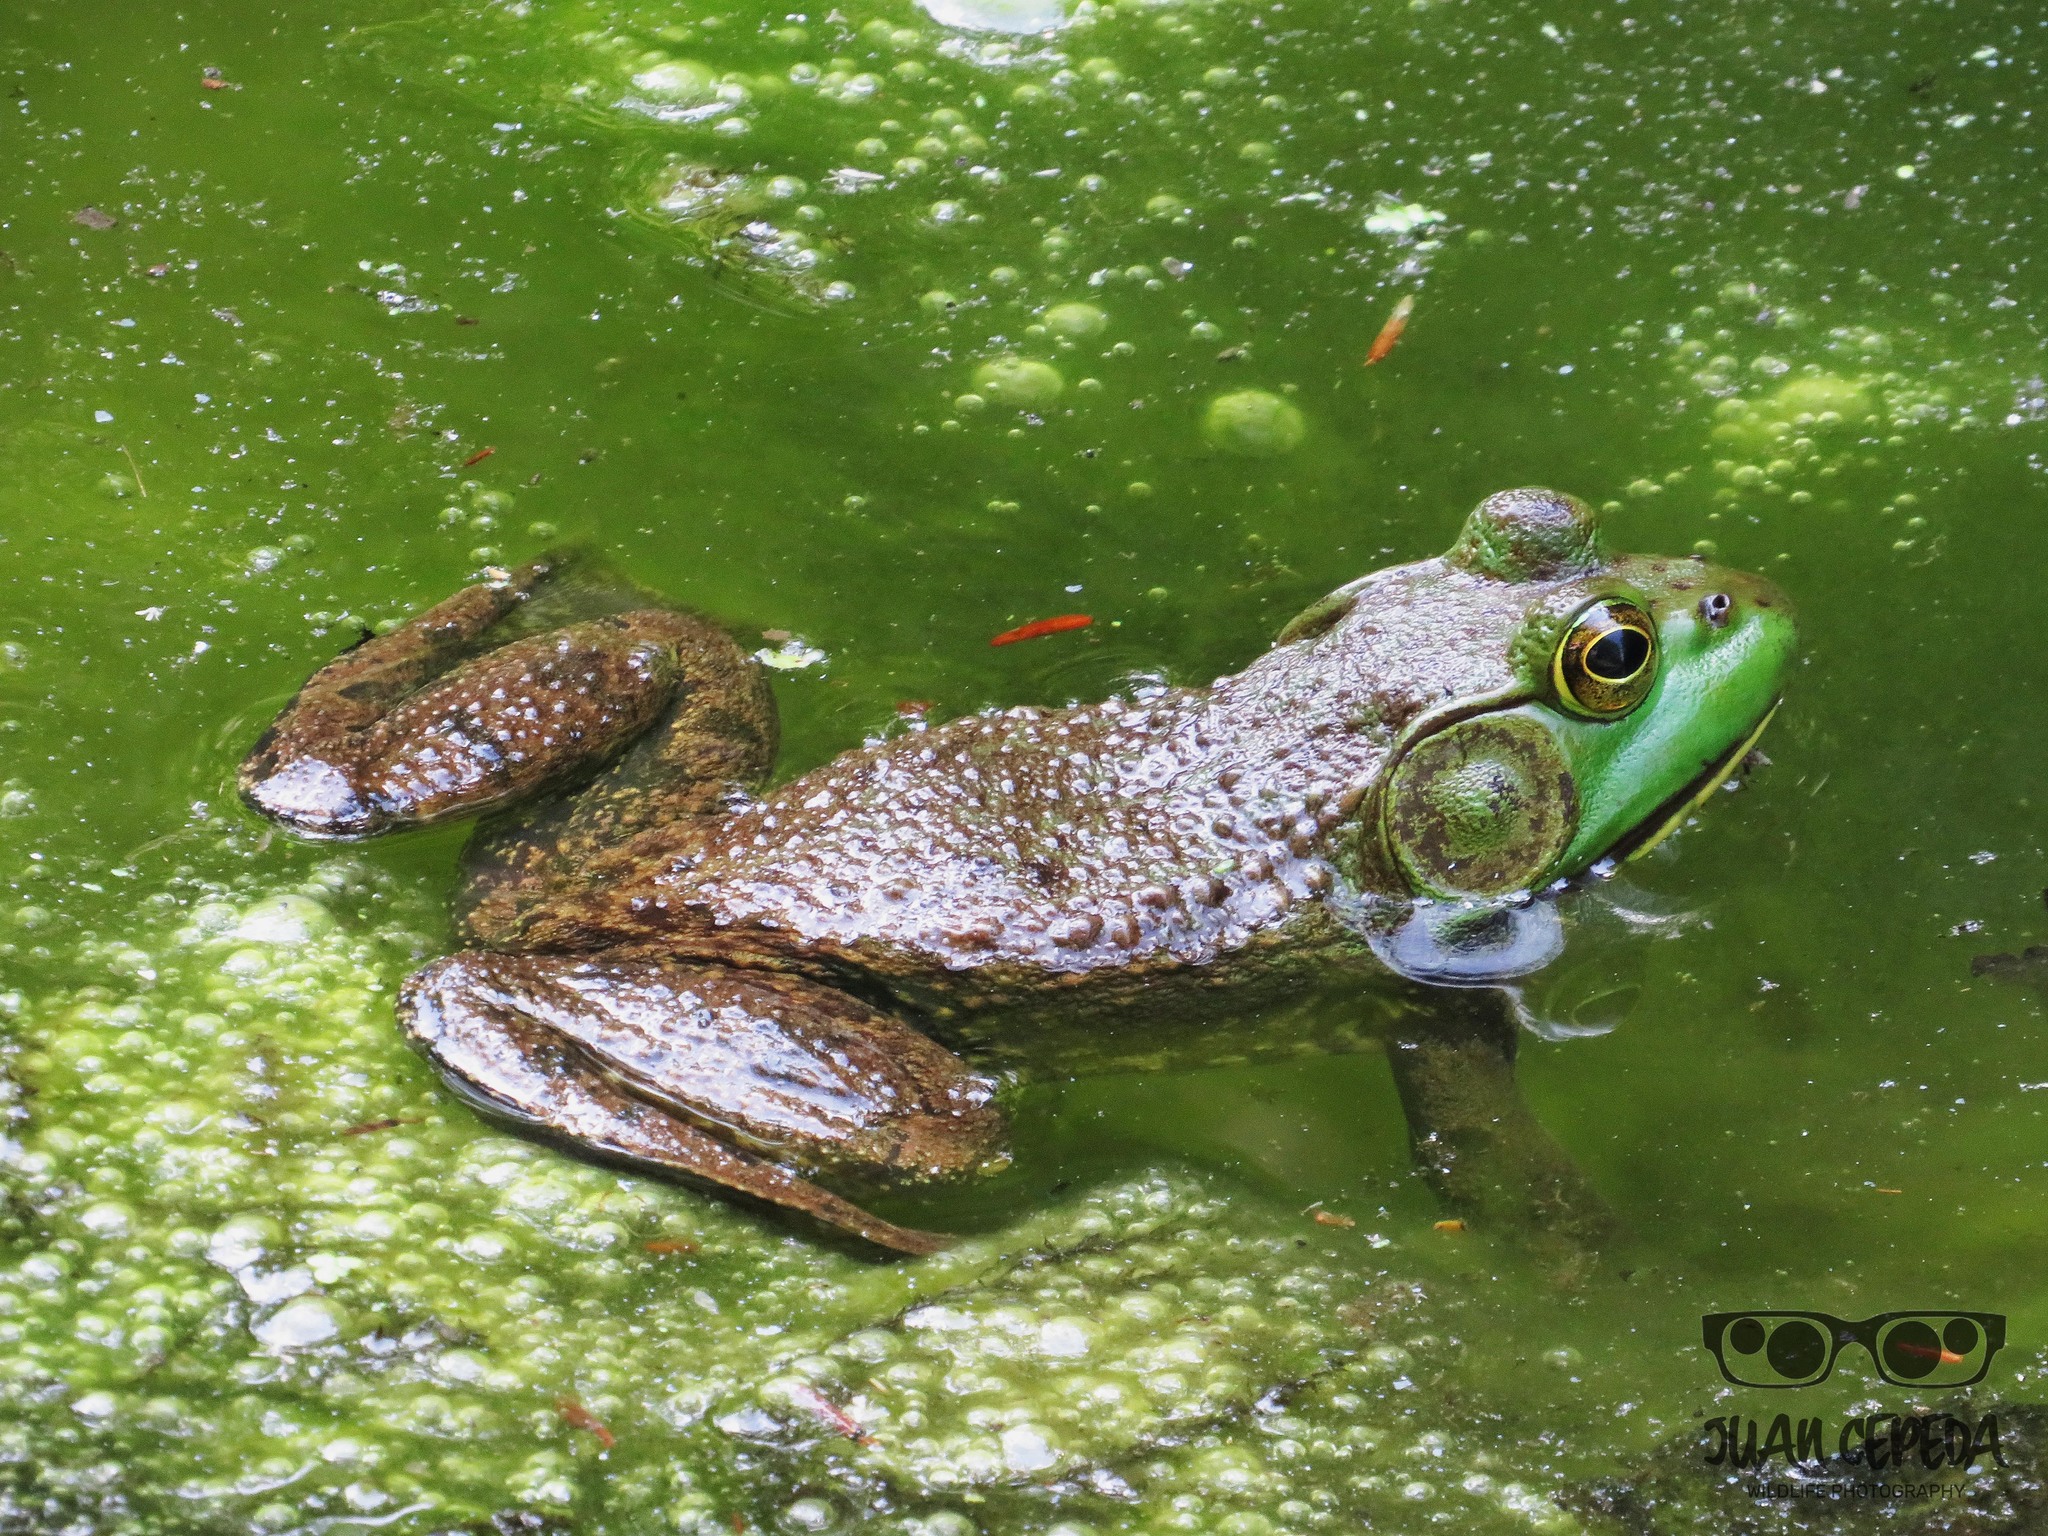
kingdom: Animalia
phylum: Chordata
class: Amphibia
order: Anura
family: Ranidae
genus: Lithobates
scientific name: Lithobates catesbeianus
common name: American bullfrog
